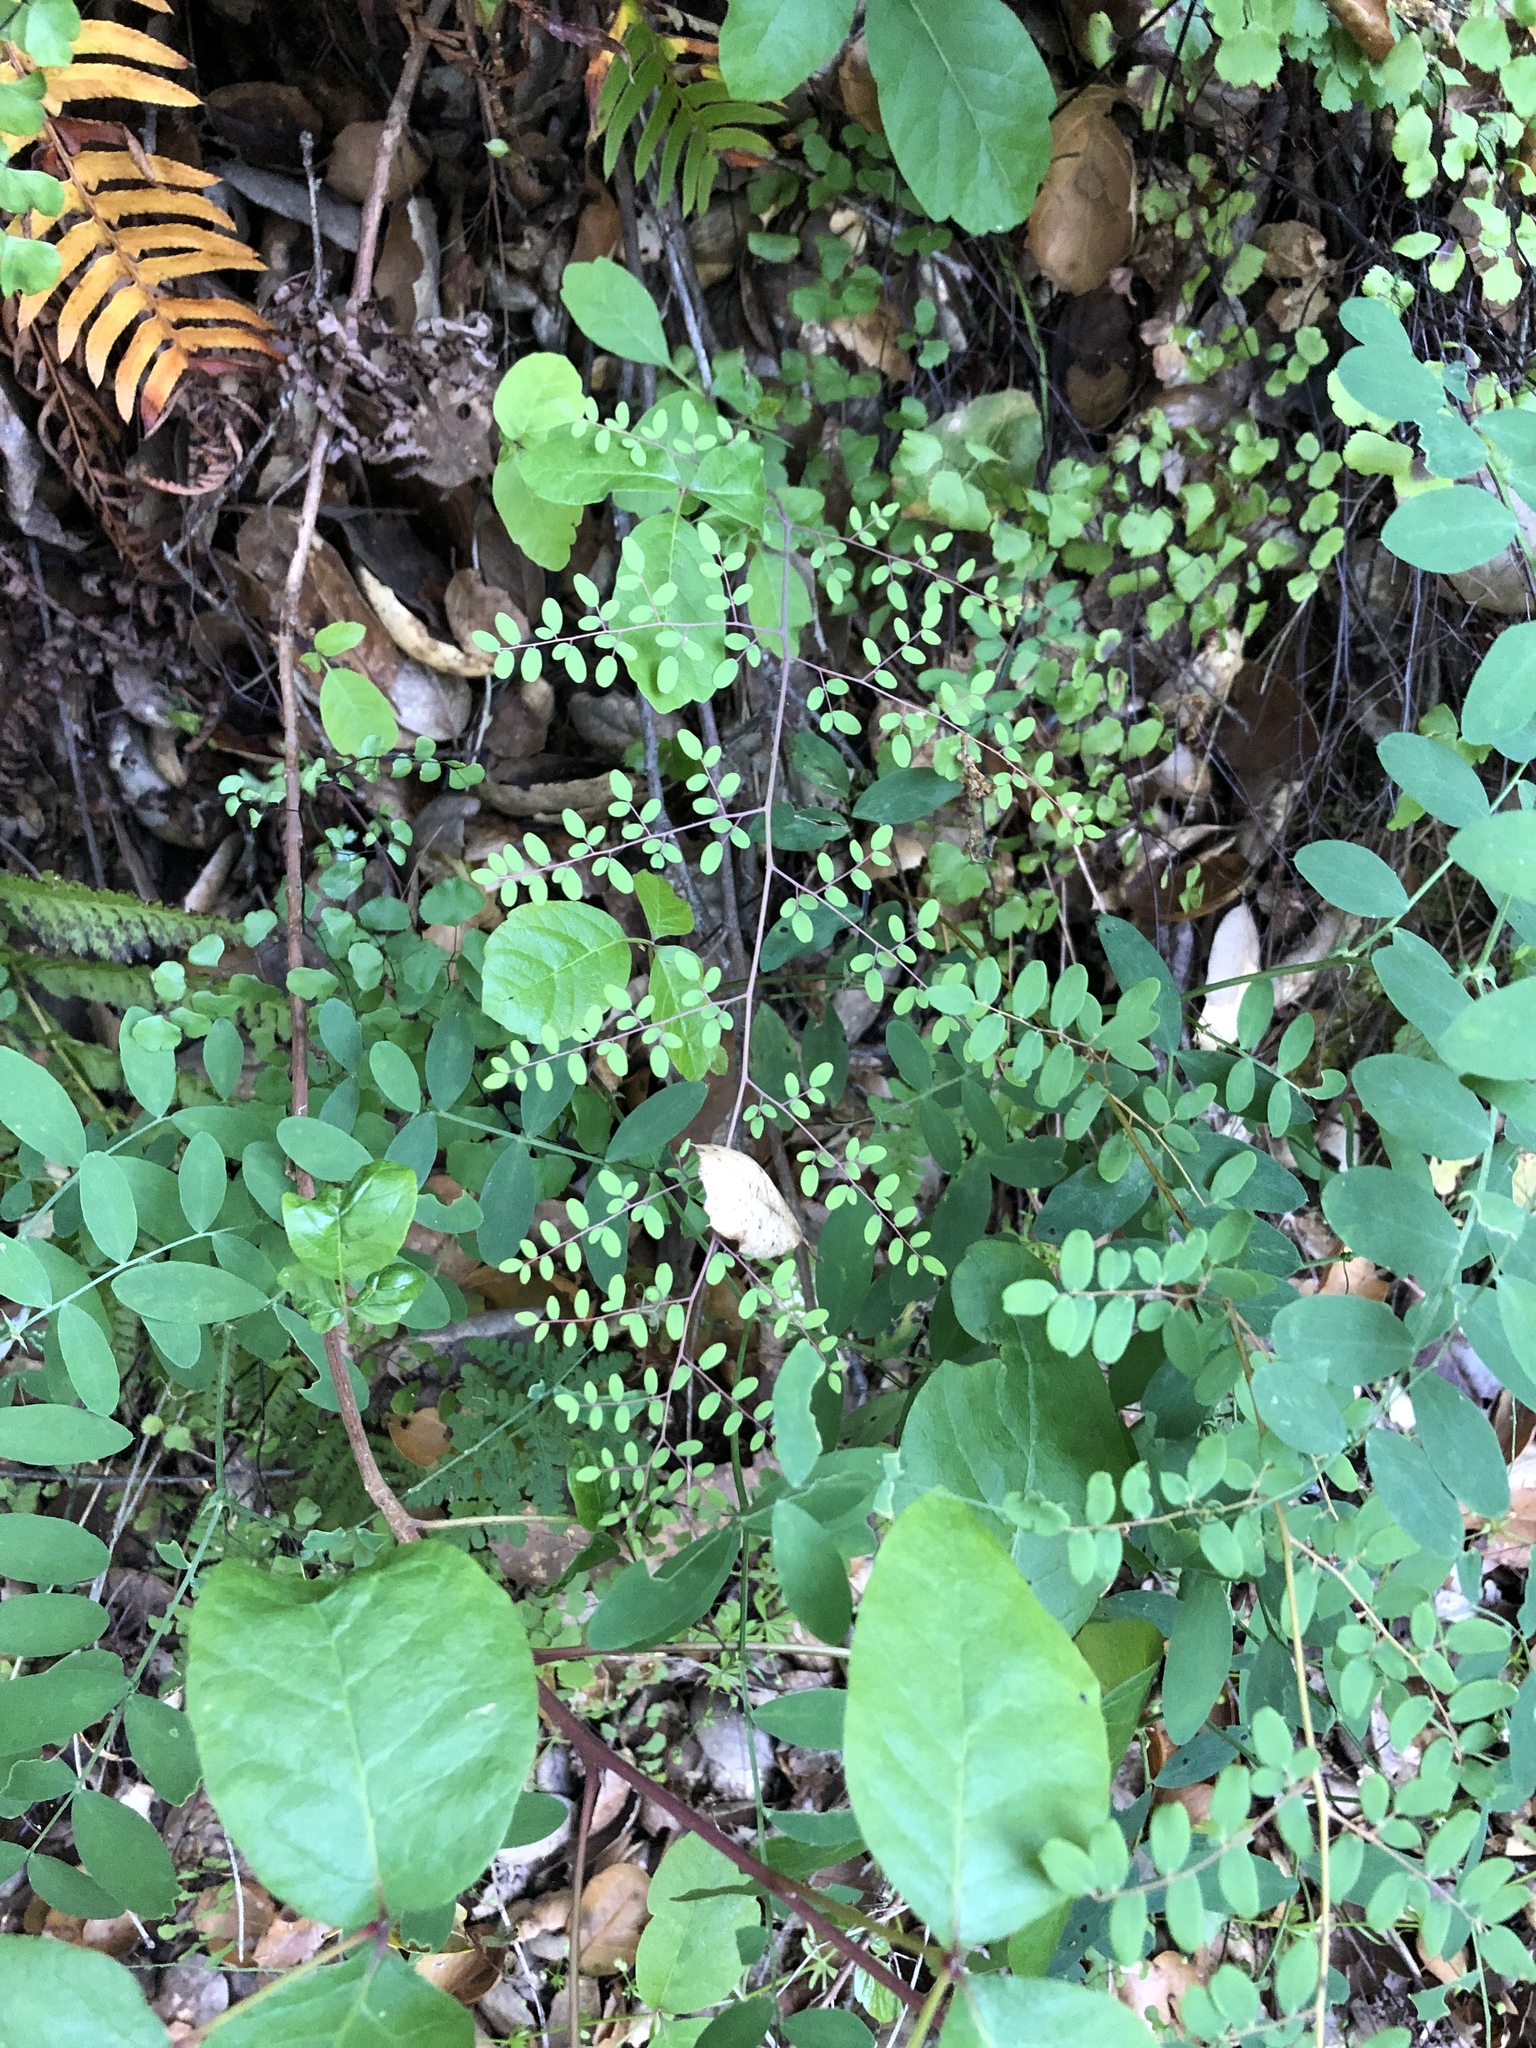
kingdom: Plantae
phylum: Tracheophyta
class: Polypodiopsida
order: Polypodiales
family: Pteridaceae
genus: Pellaea
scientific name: Pellaea andromedifolia
